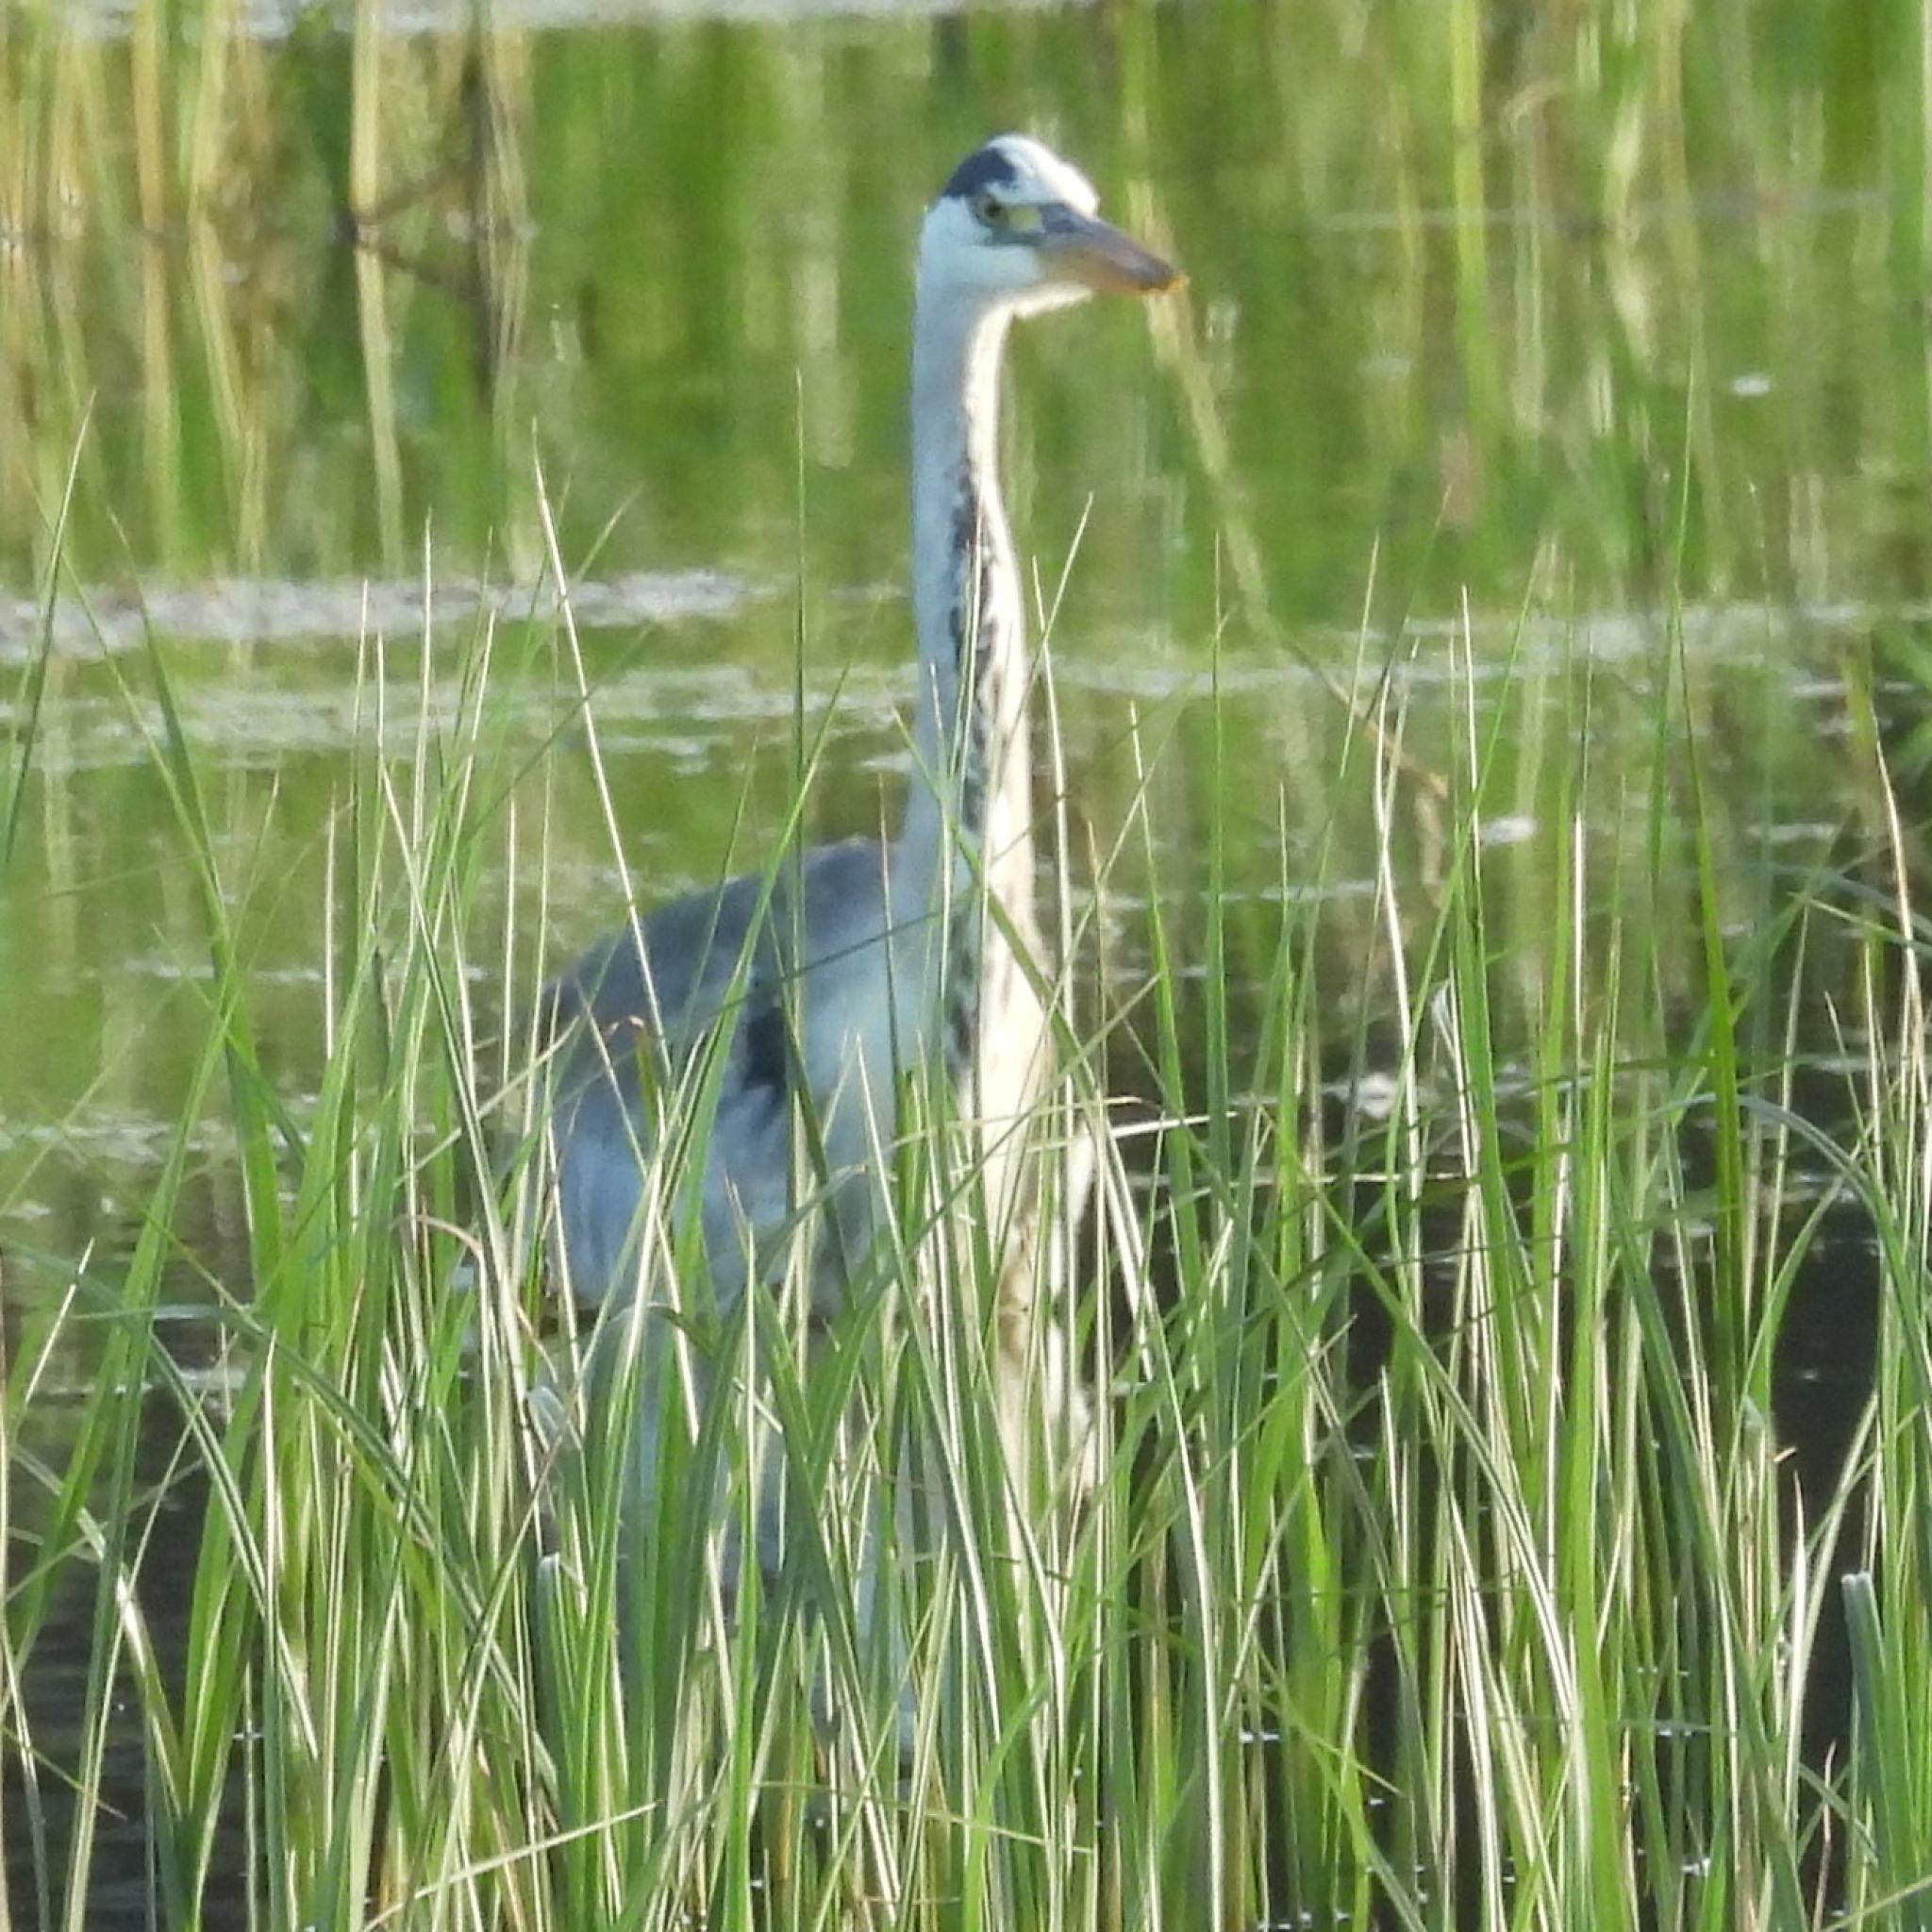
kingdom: Animalia
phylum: Chordata
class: Aves
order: Pelecaniformes
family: Ardeidae
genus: Ardea
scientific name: Ardea cinerea
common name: Grey heron
